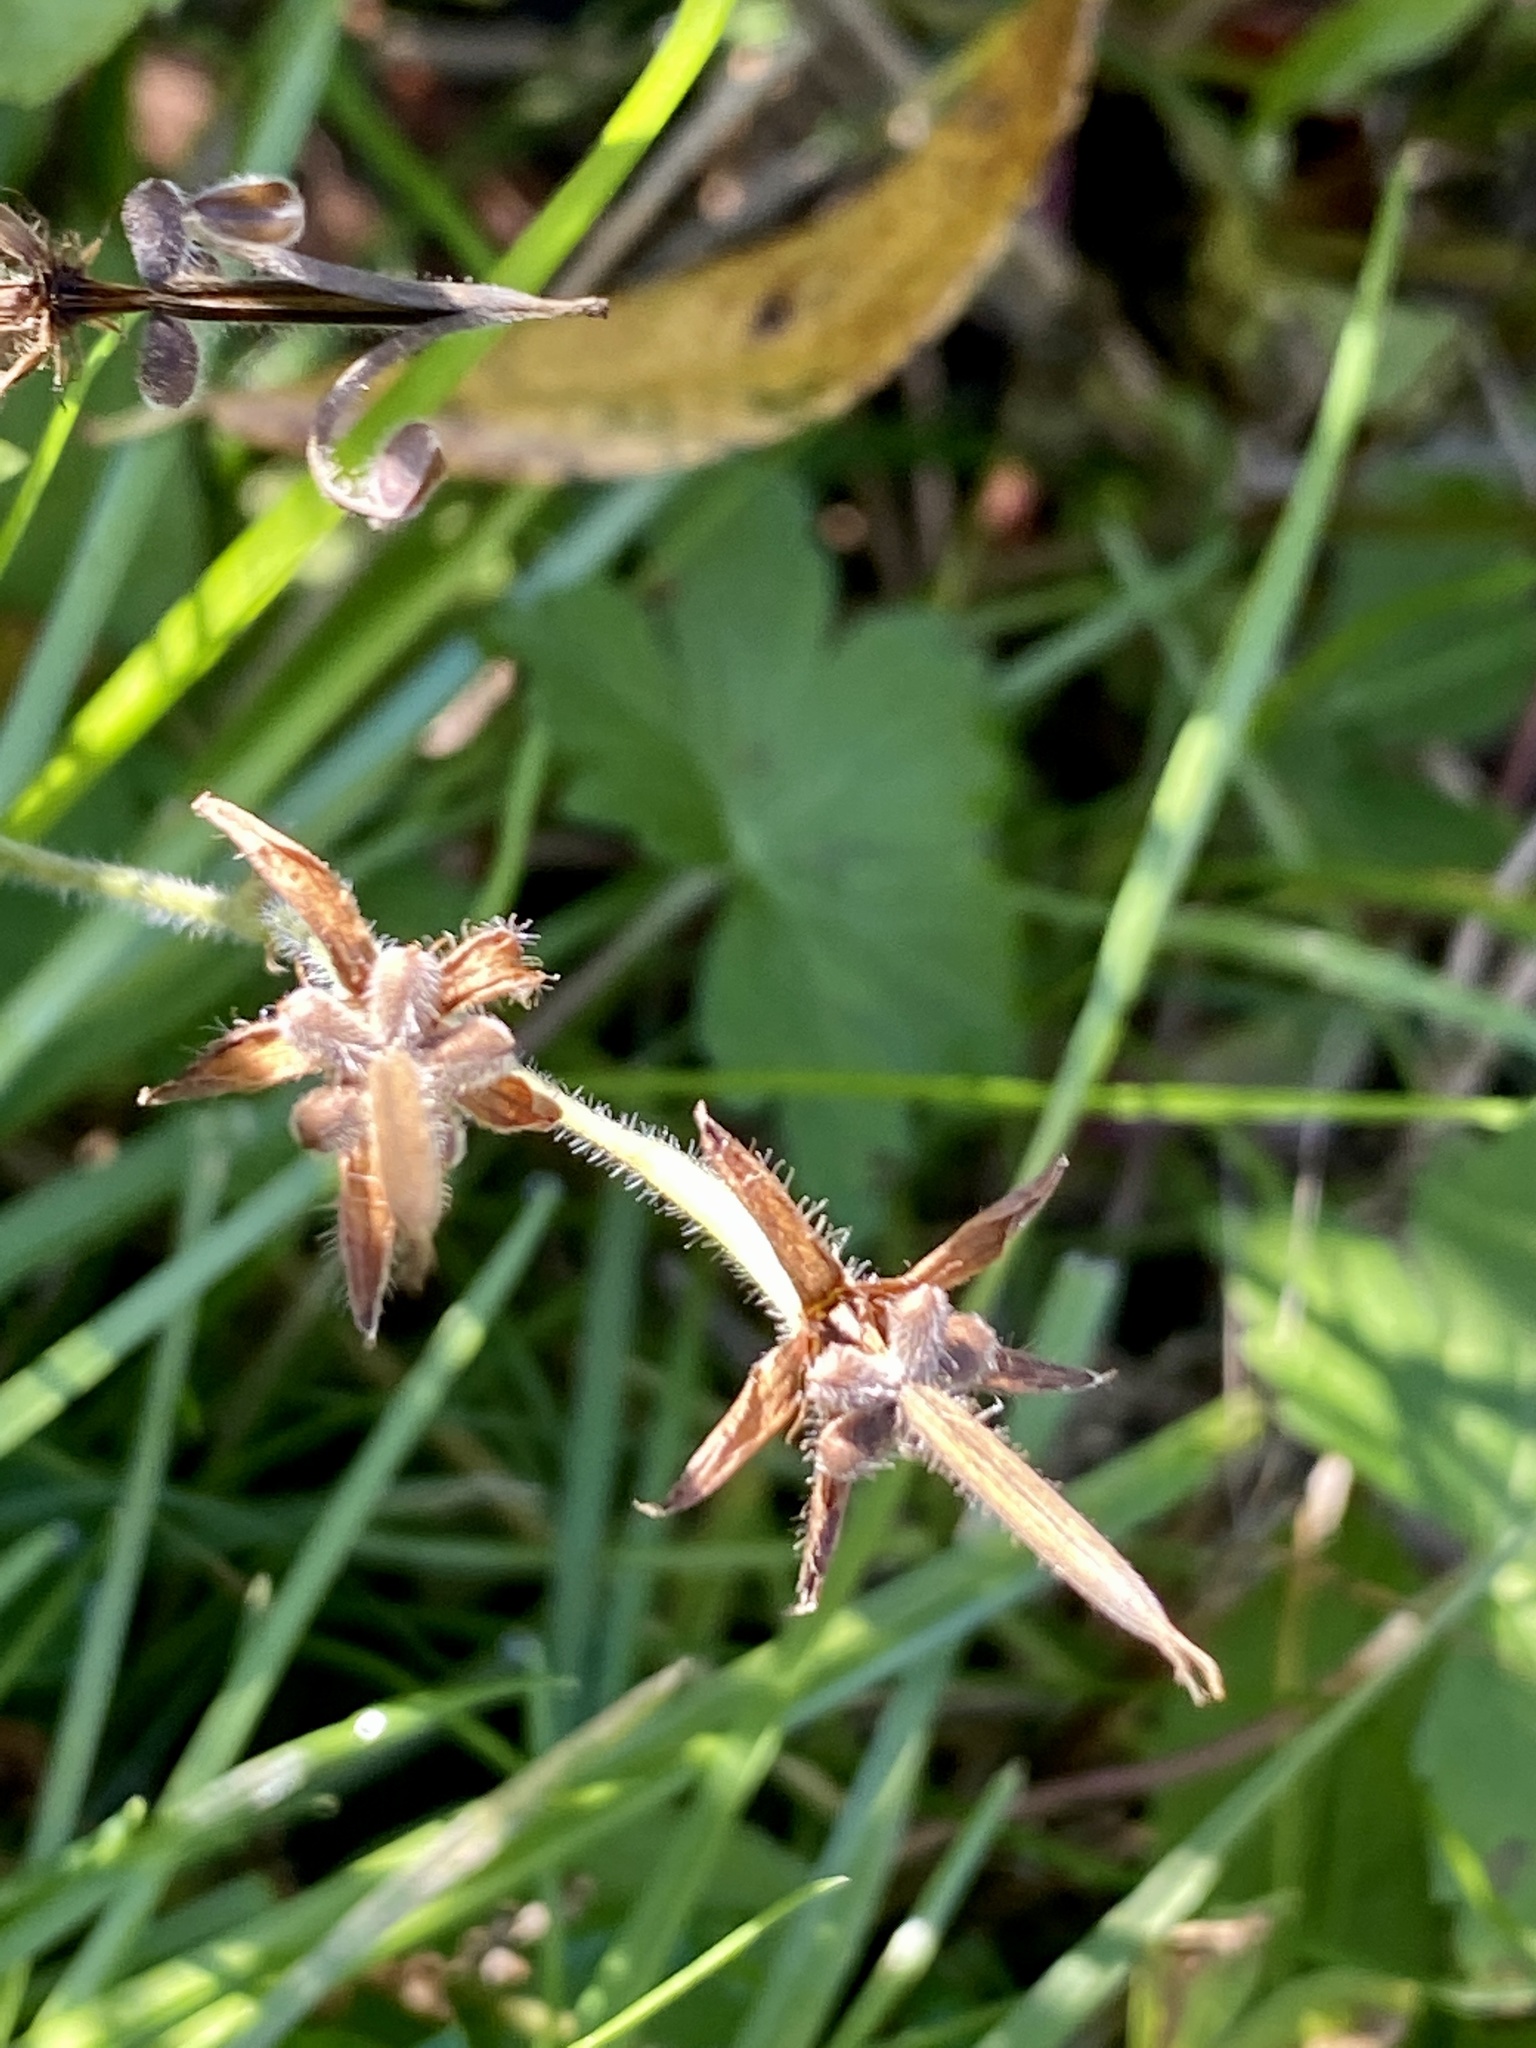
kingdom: Plantae
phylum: Tracheophyta
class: Magnoliopsida
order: Geraniales
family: Geraniaceae
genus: Geranium
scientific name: Geranium thunbergii
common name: Dewdrop crane's-bill
